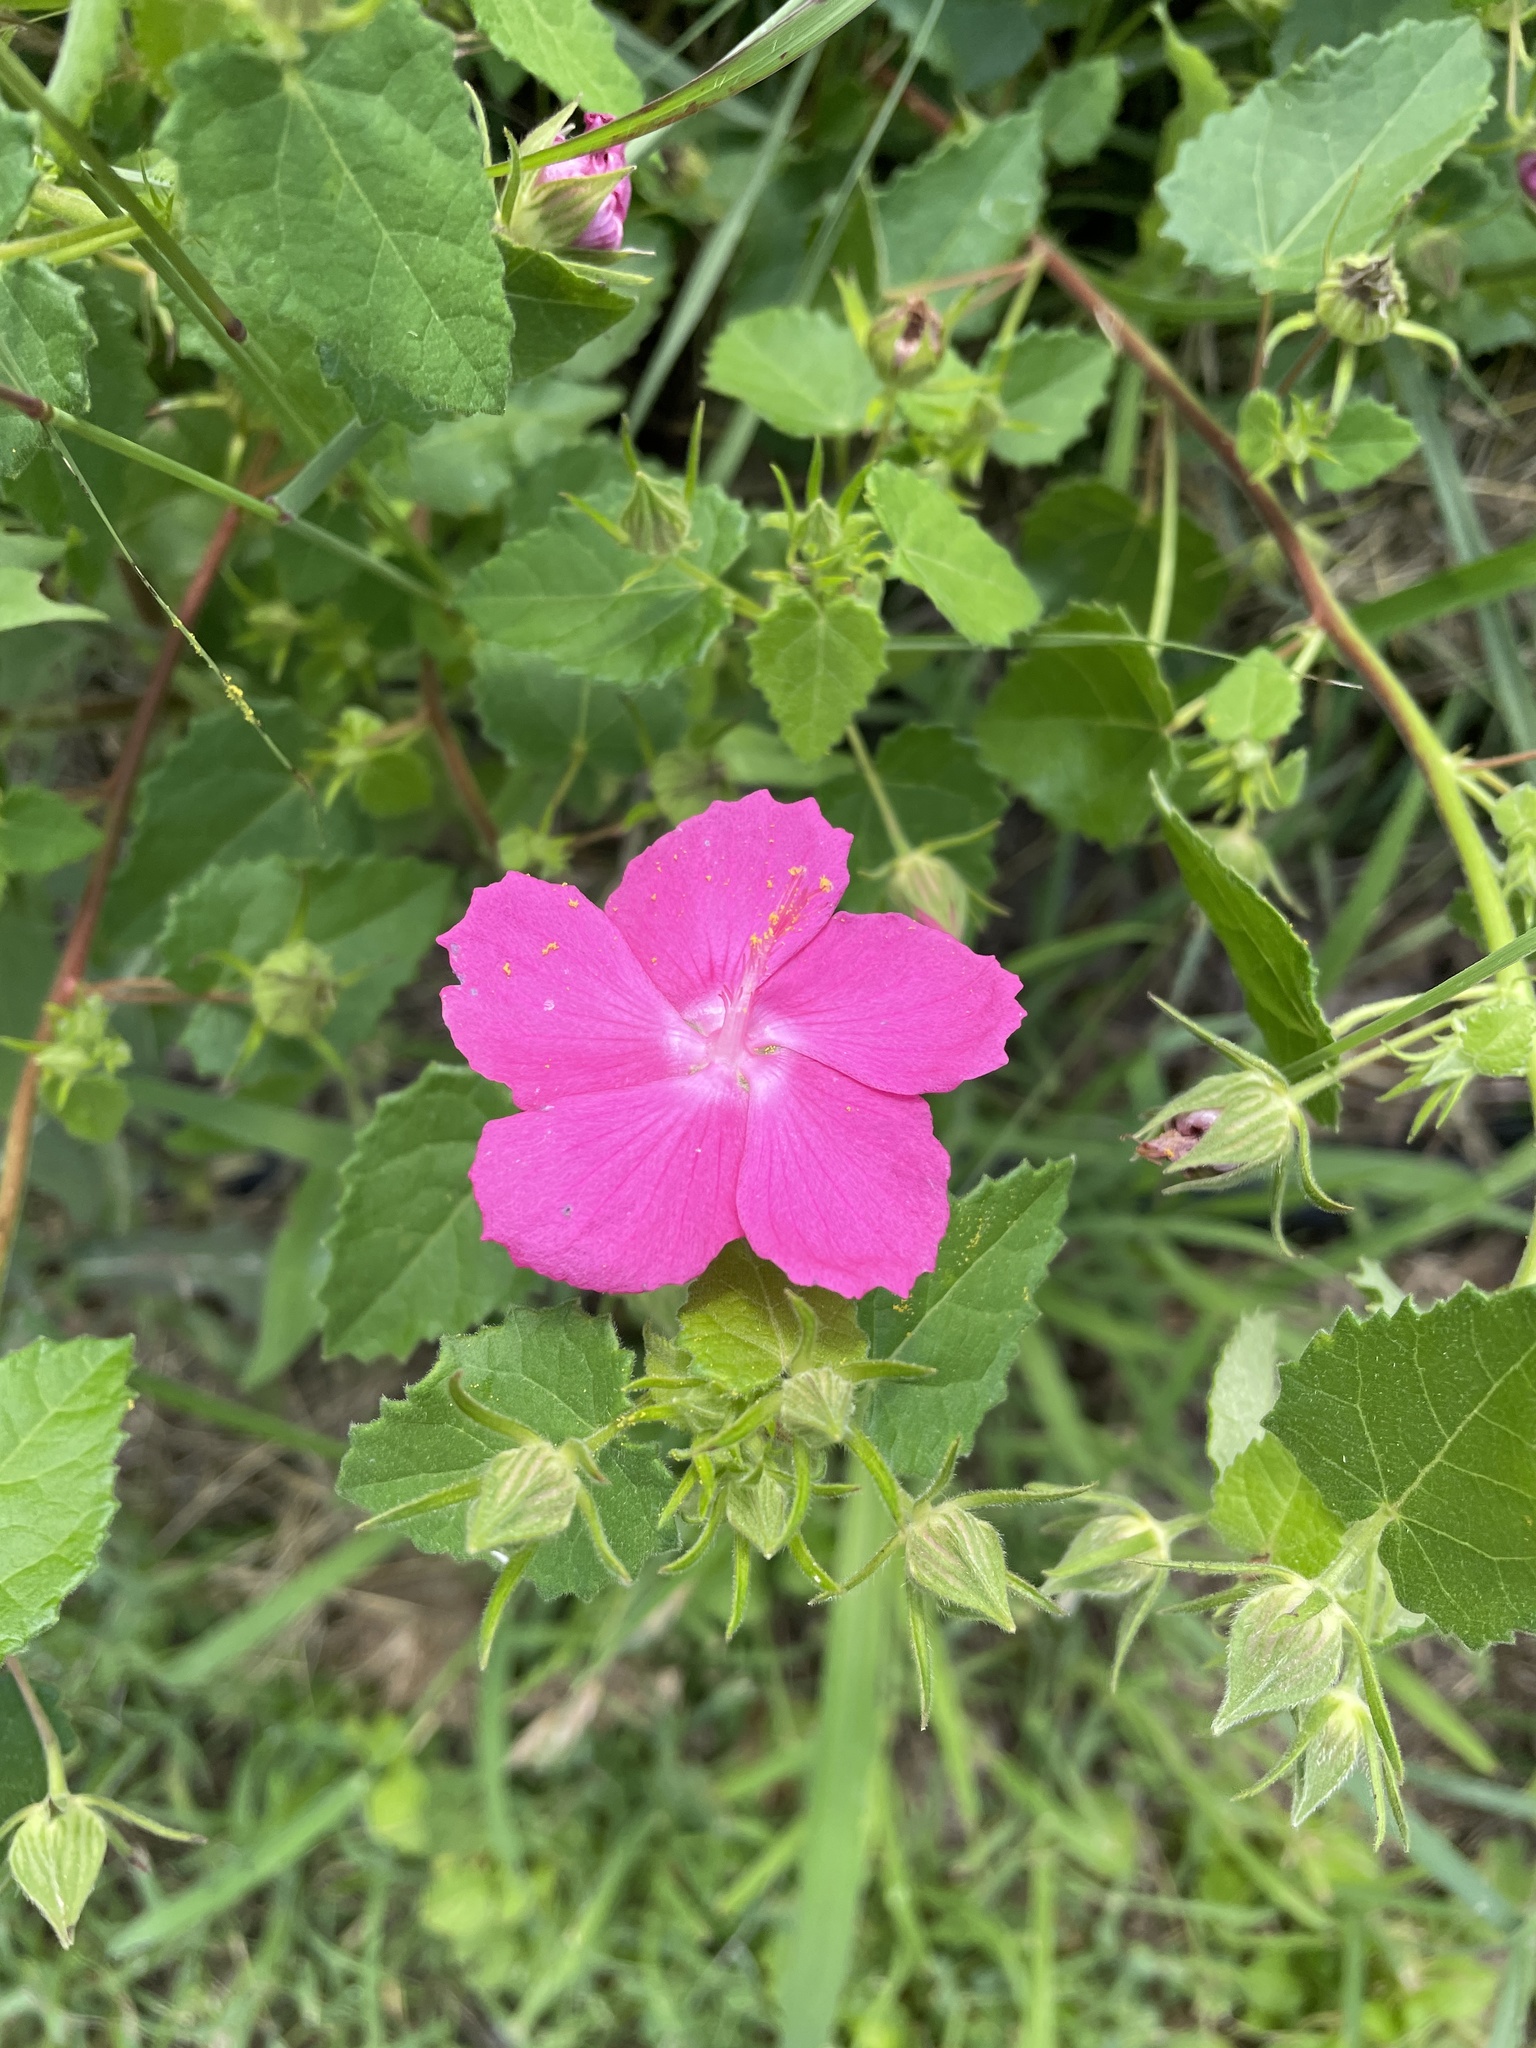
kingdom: Plantae
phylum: Tracheophyta
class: Magnoliopsida
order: Malvales
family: Malvaceae
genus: Pavonia
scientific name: Pavonia lasiopetala
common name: Texas swamp-mallow
